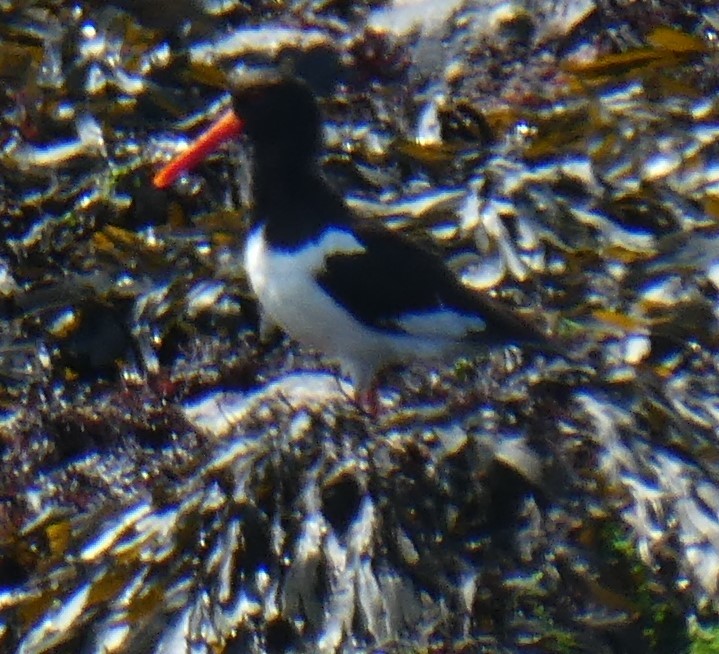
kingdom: Animalia
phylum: Chordata
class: Aves
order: Charadriiformes
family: Haematopodidae
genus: Haematopus
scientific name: Haematopus ostralegus
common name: Eurasian oystercatcher
